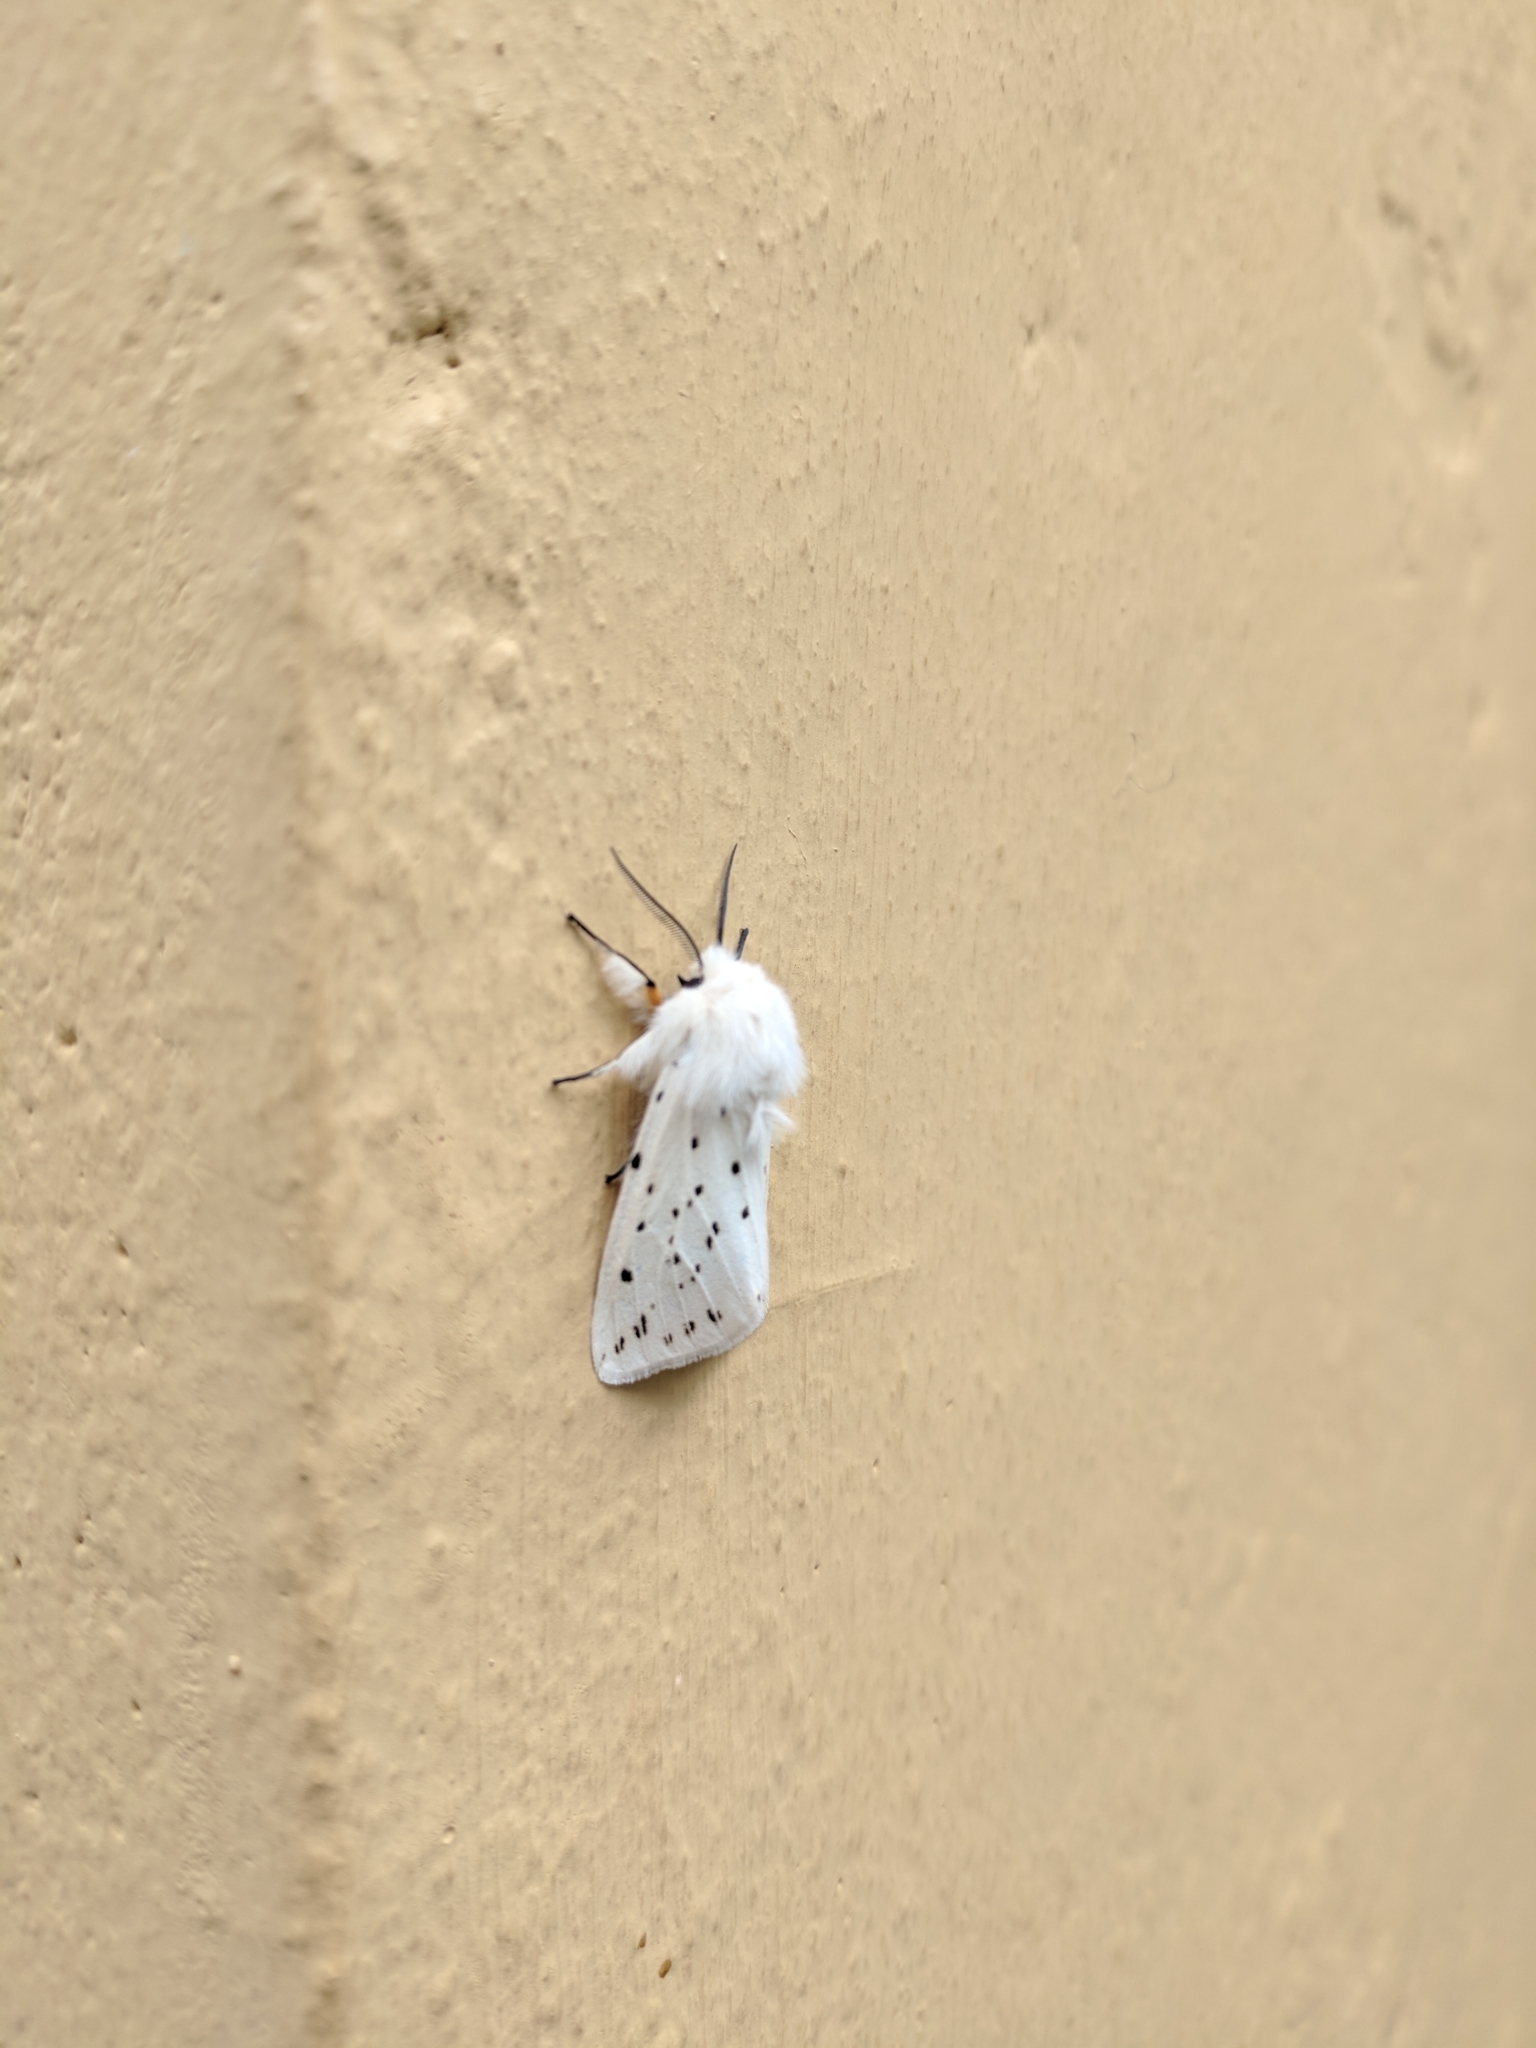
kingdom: Animalia
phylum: Arthropoda
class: Insecta
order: Lepidoptera
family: Erebidae
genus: Spilosoma
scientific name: Spilosoma lubricipeda
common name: White ermine
